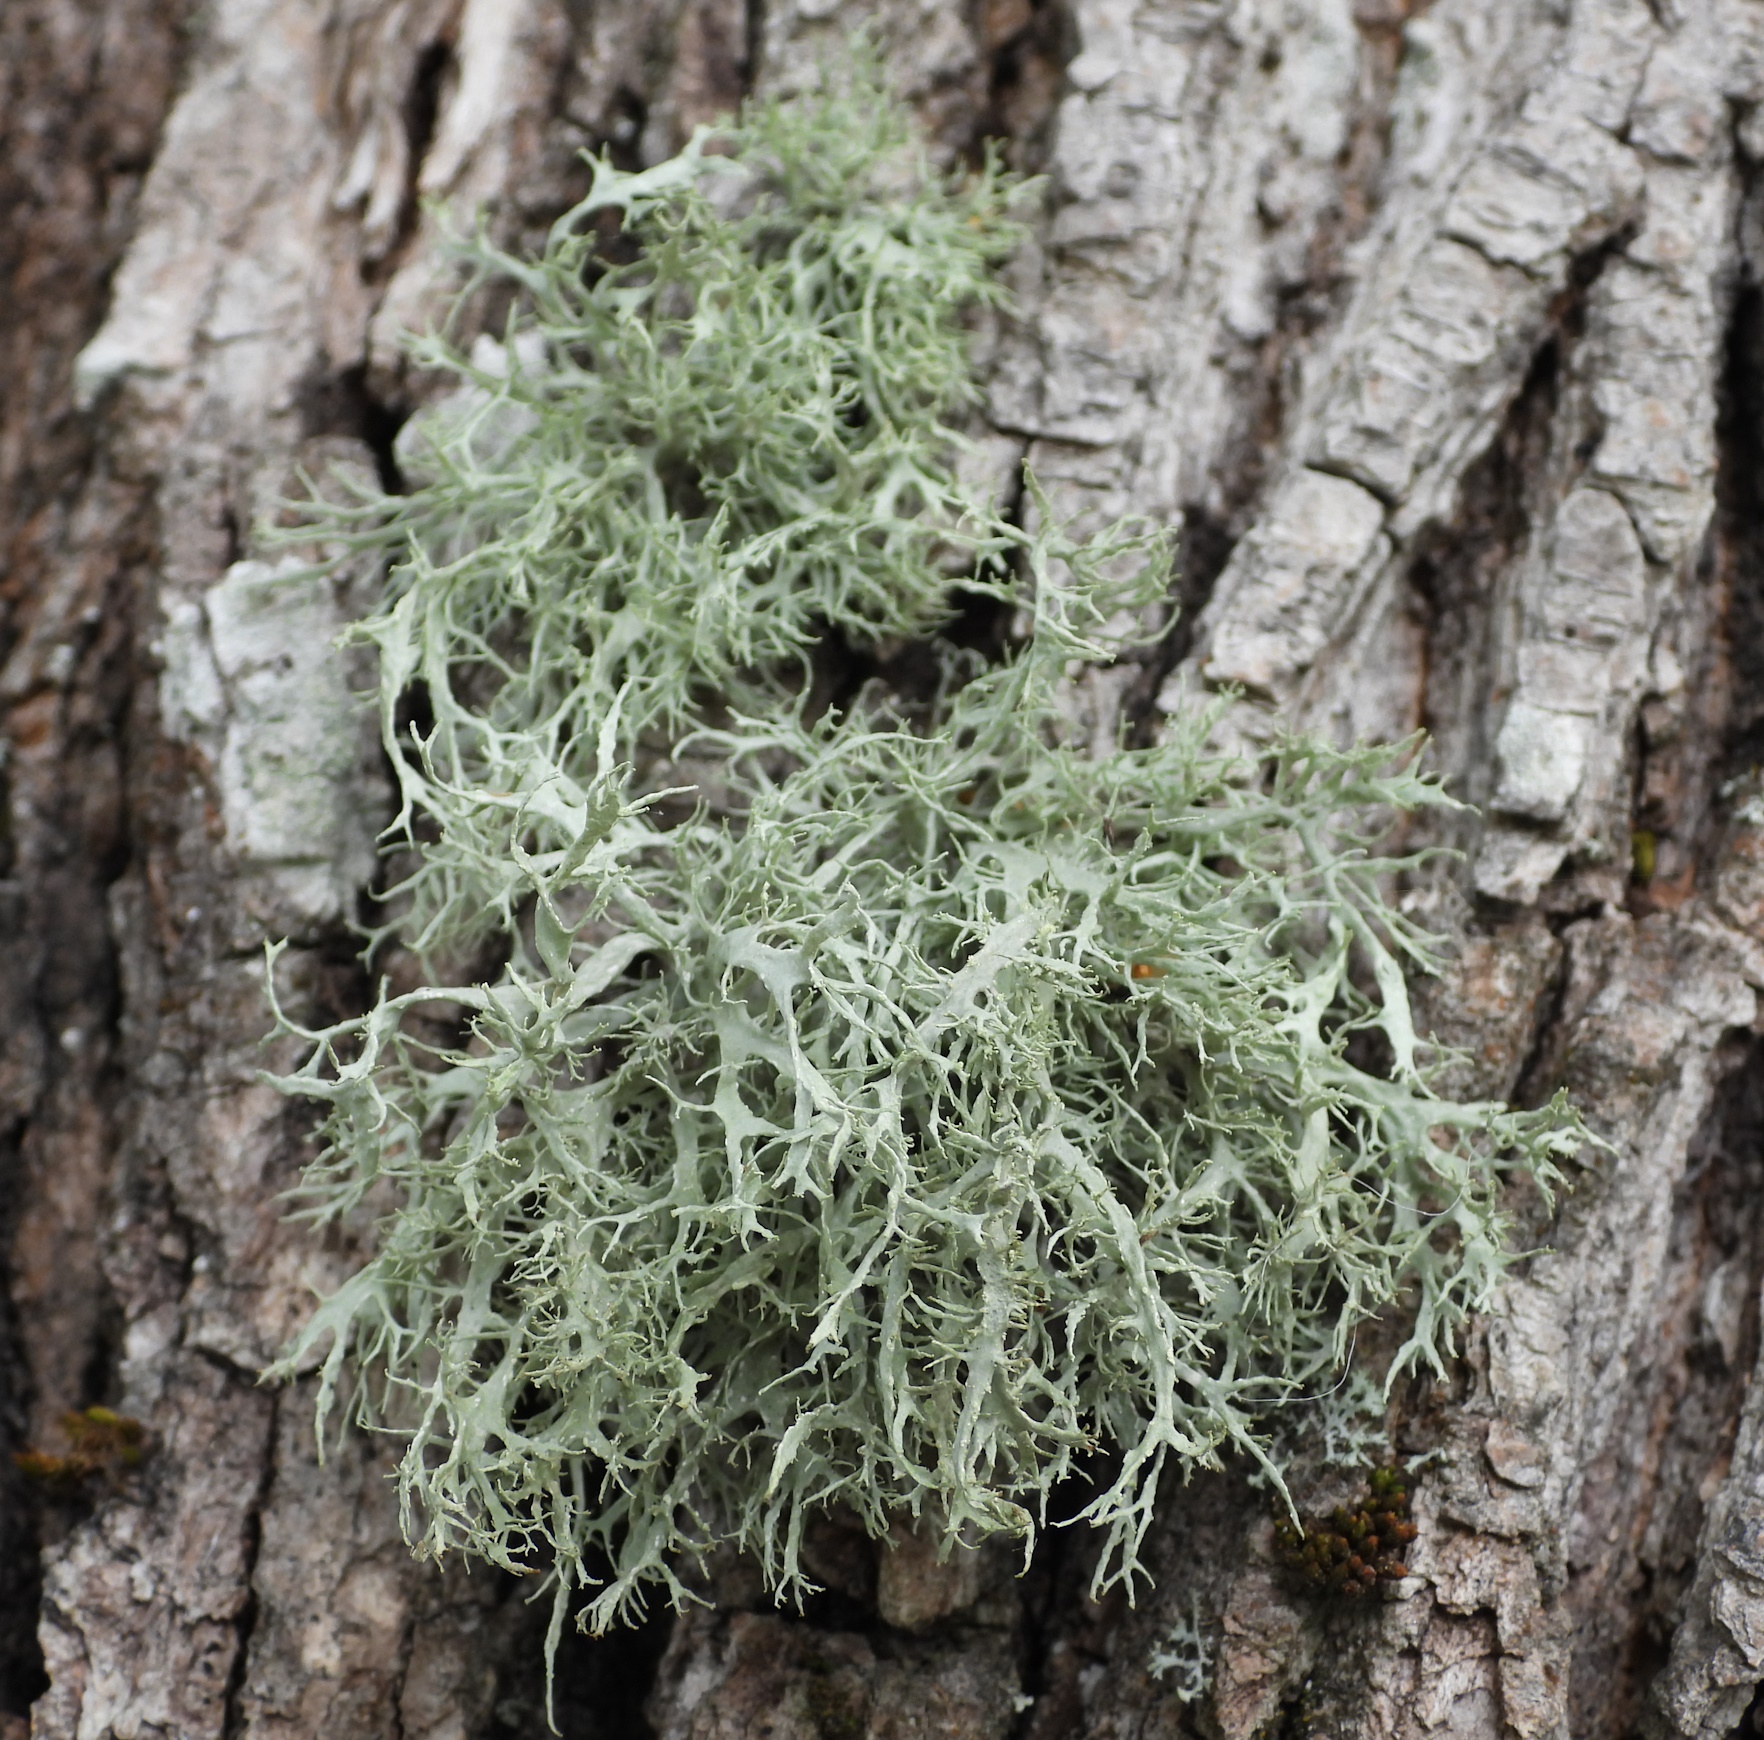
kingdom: Fungi
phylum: Ascomycota
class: Lecanoromycetes
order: Lecanorales
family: Ramalinaceae
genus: Ramalina
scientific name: Ramalina farinacea
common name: Farinose cartilage lichen
